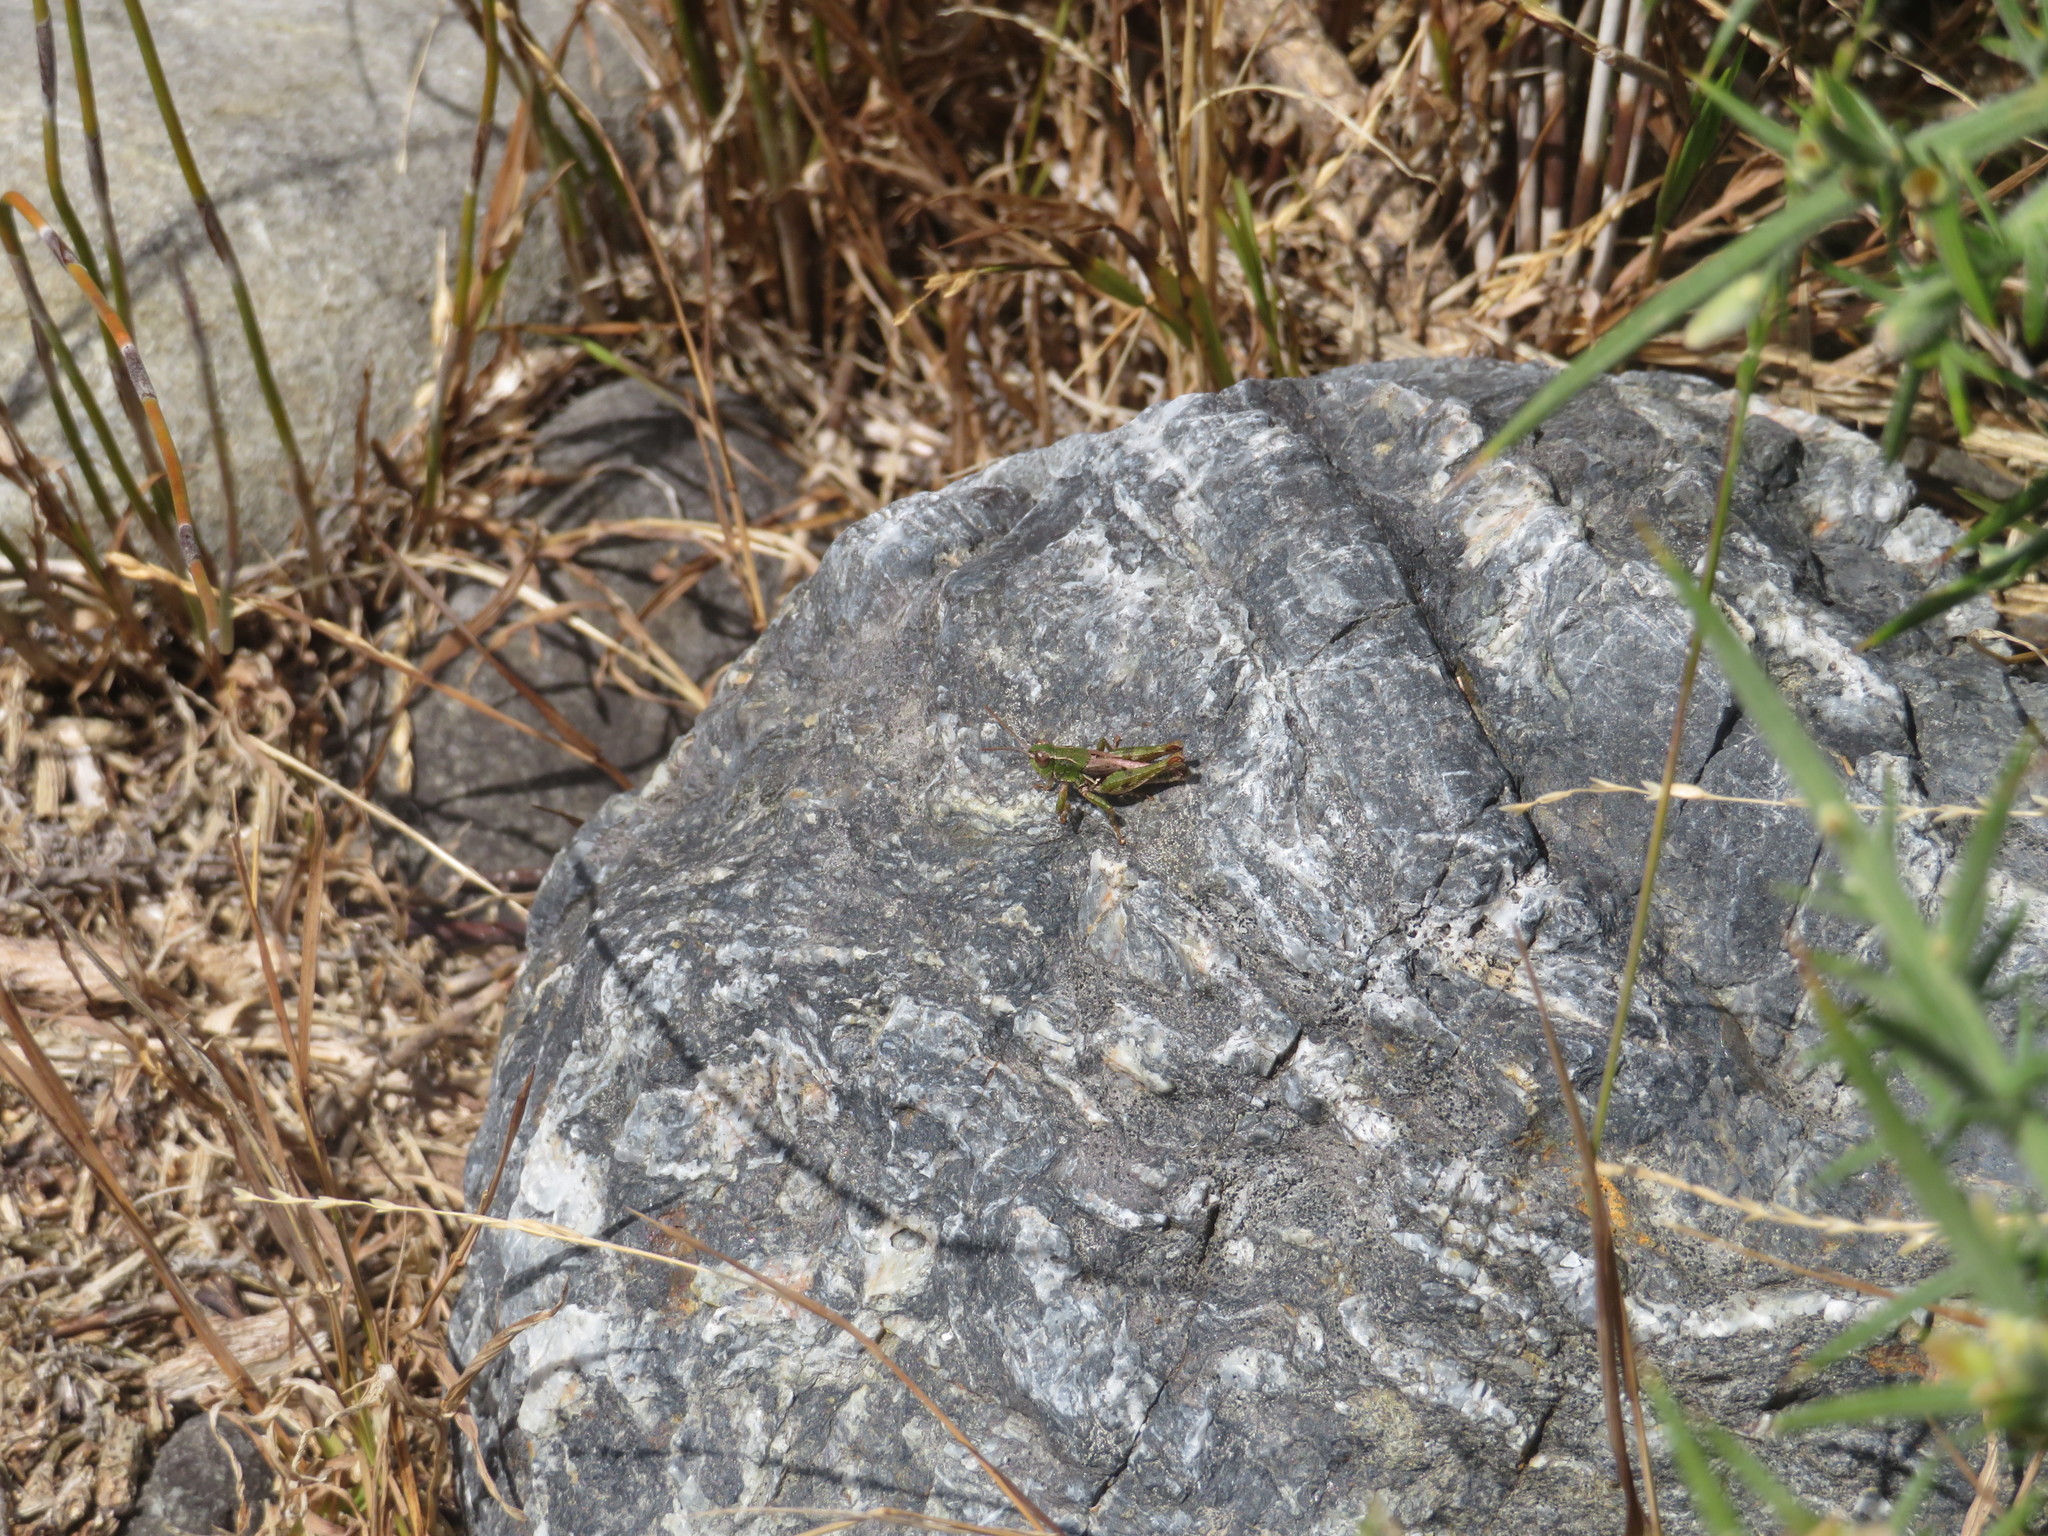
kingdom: Animalia
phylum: Arthropoda
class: Insecta
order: Orthoptera
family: Acrididae
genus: Phaulacridium
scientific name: Phaulacridium marginale
